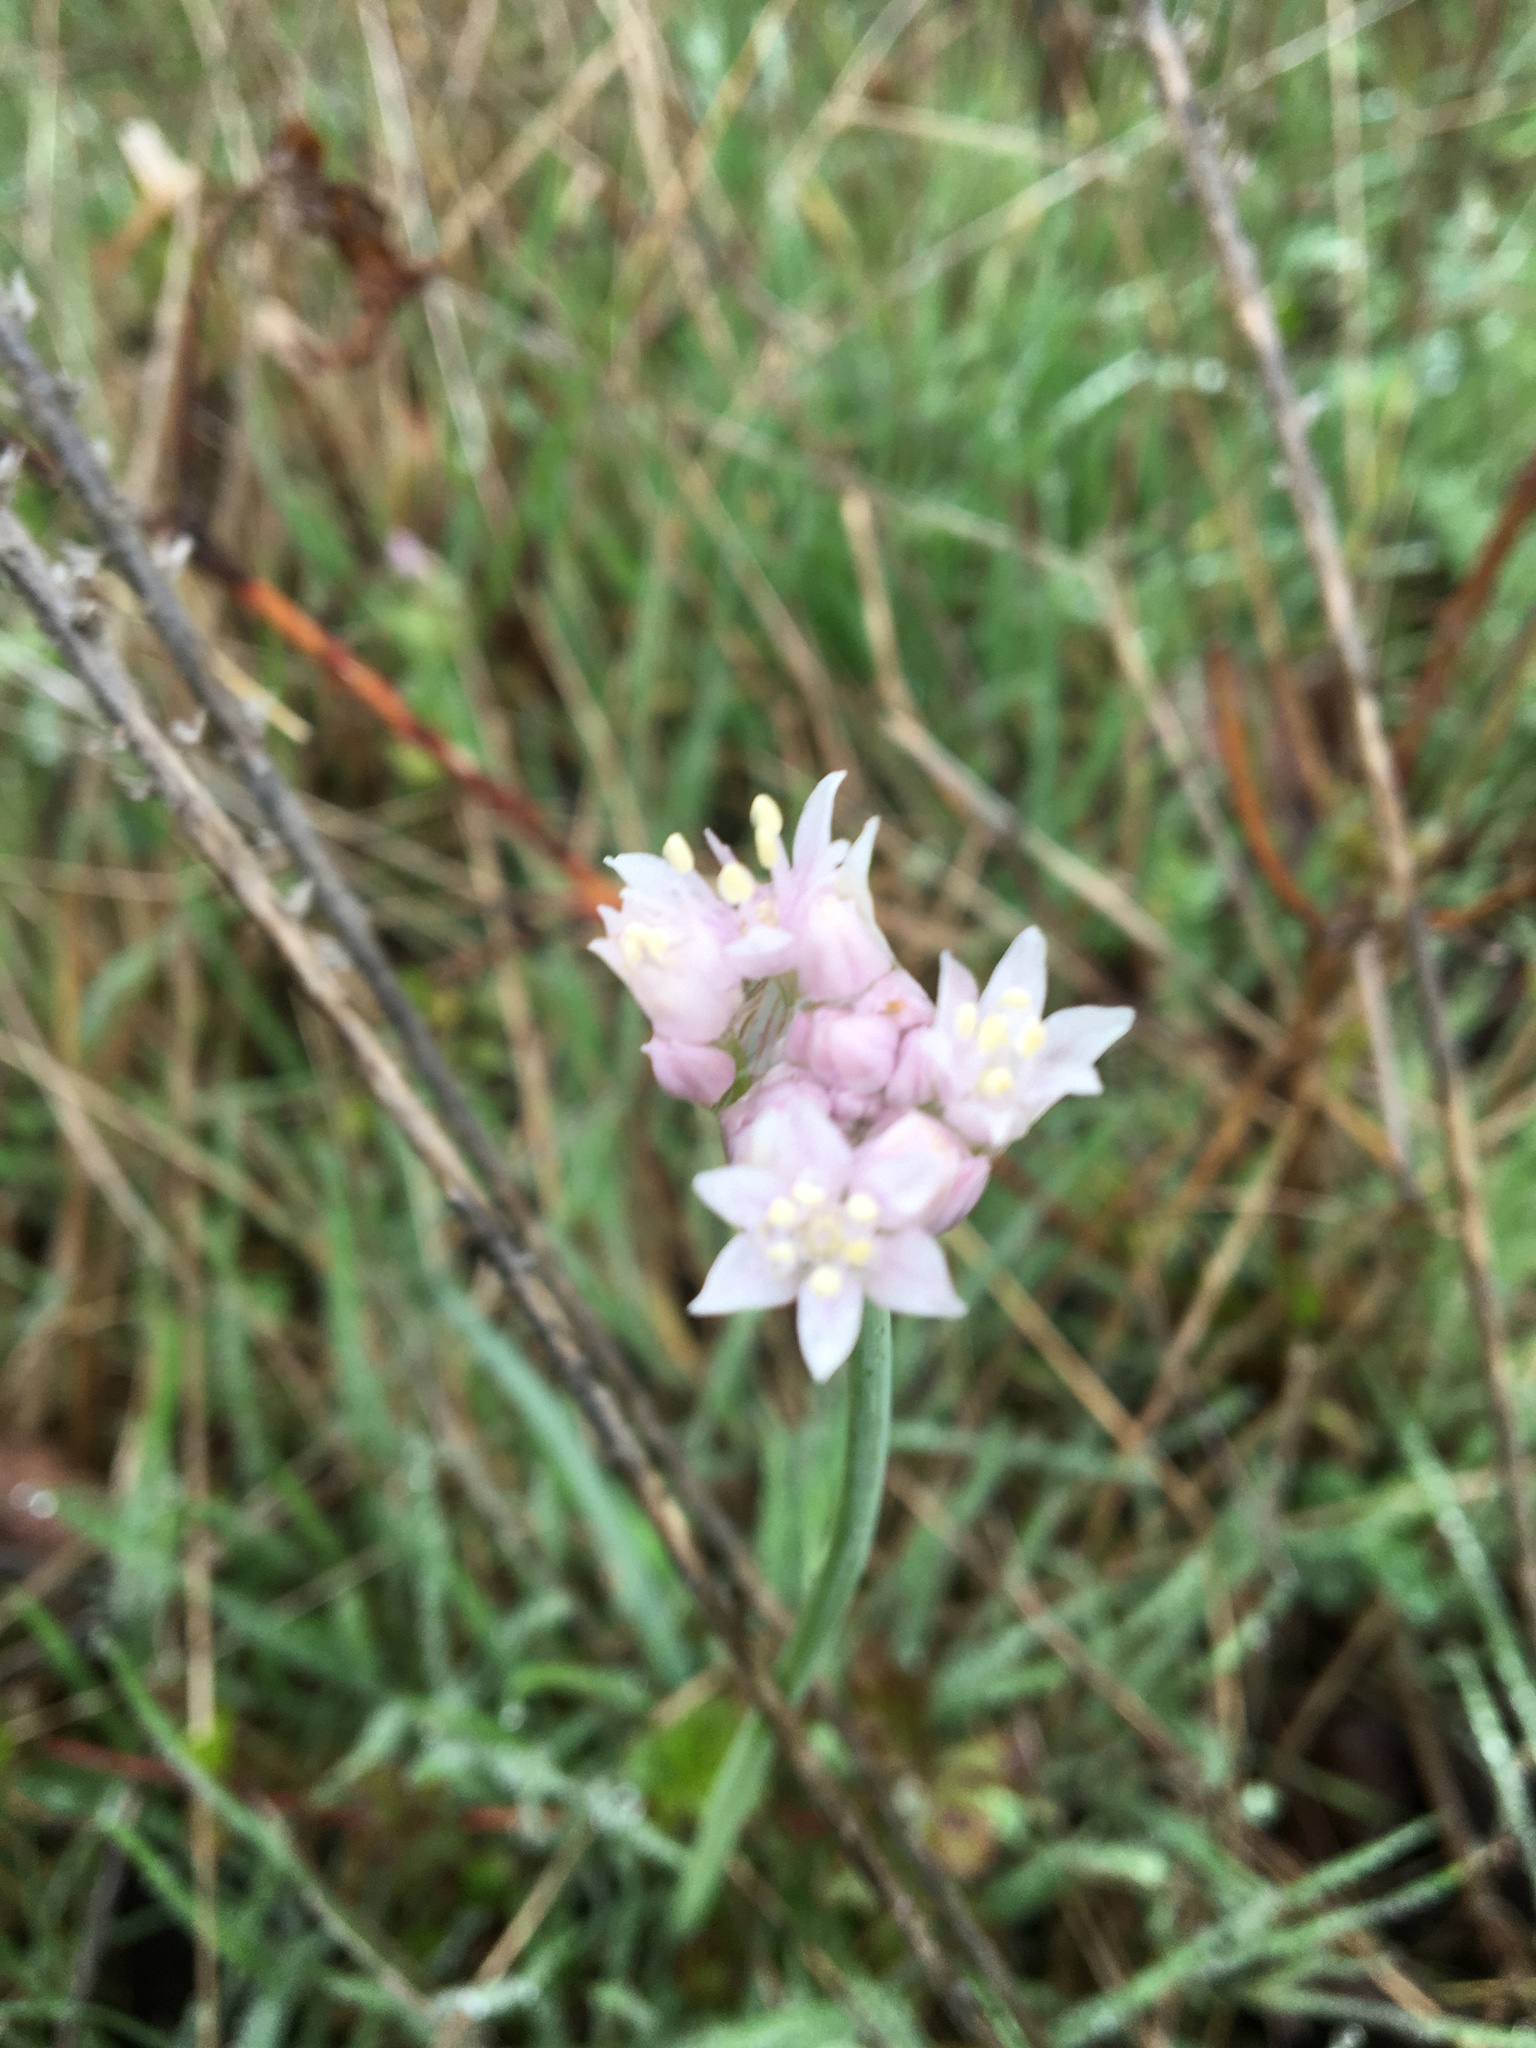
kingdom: Plantae
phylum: Tracheophyta
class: Liliopsida
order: Asparagales
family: Amaryllidaceae
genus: Allium
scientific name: Allium drummondii
